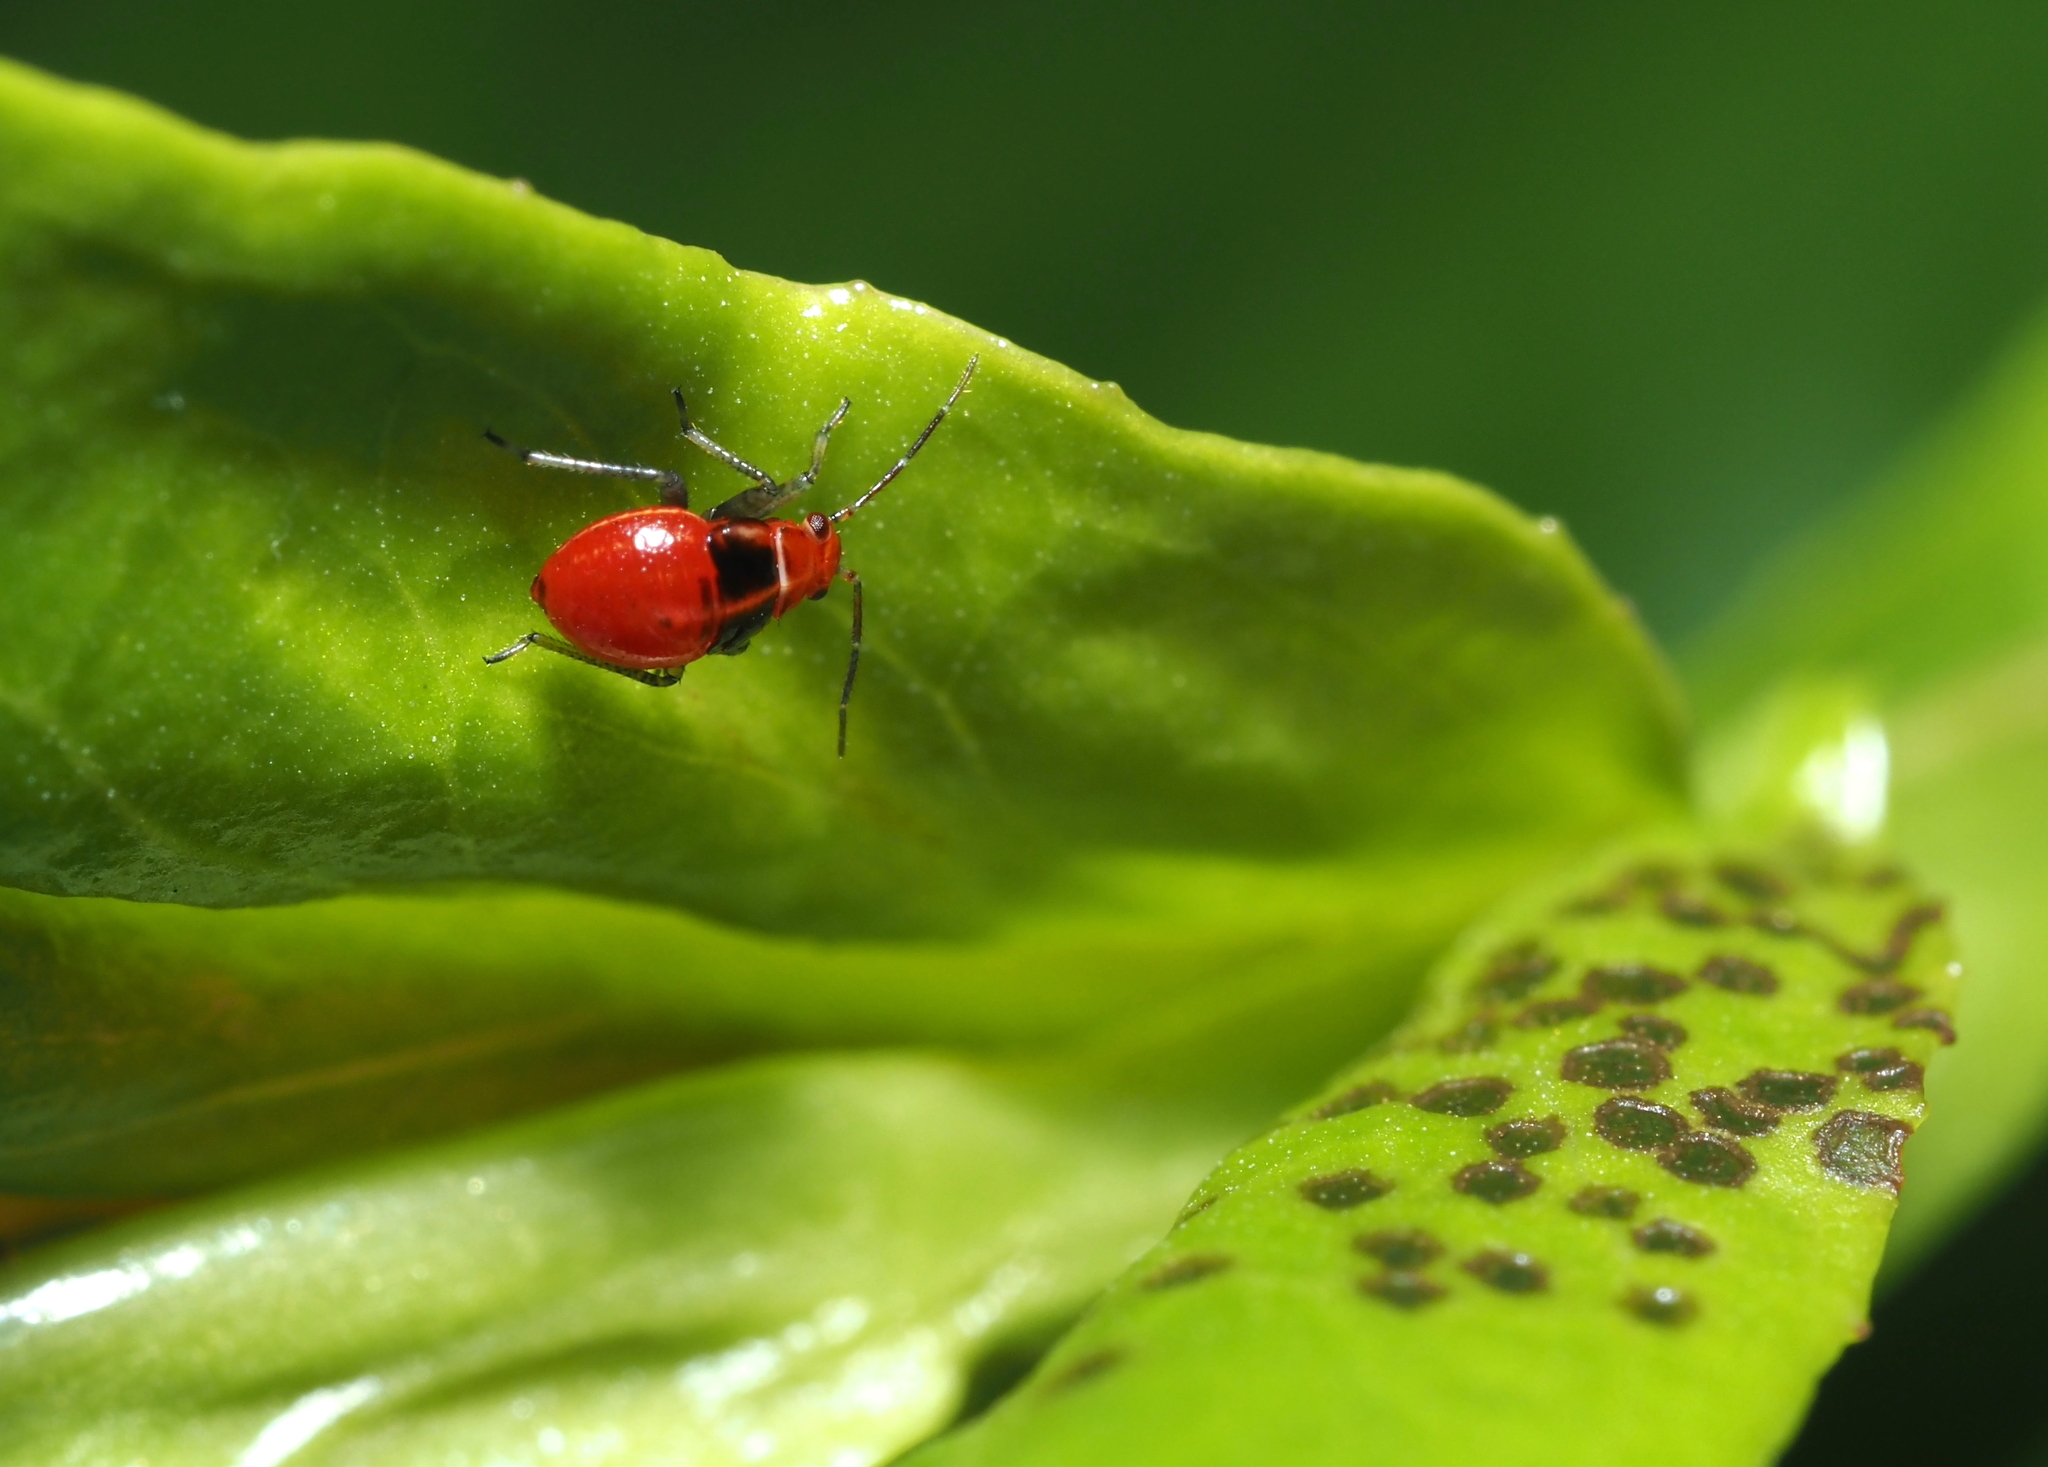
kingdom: Animalia
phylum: Arthropoda
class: Insecta
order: Hemiptera
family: Miridae
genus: Poecilocapsus
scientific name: Poecilocapsus lineatus
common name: Four-lined plant bug
